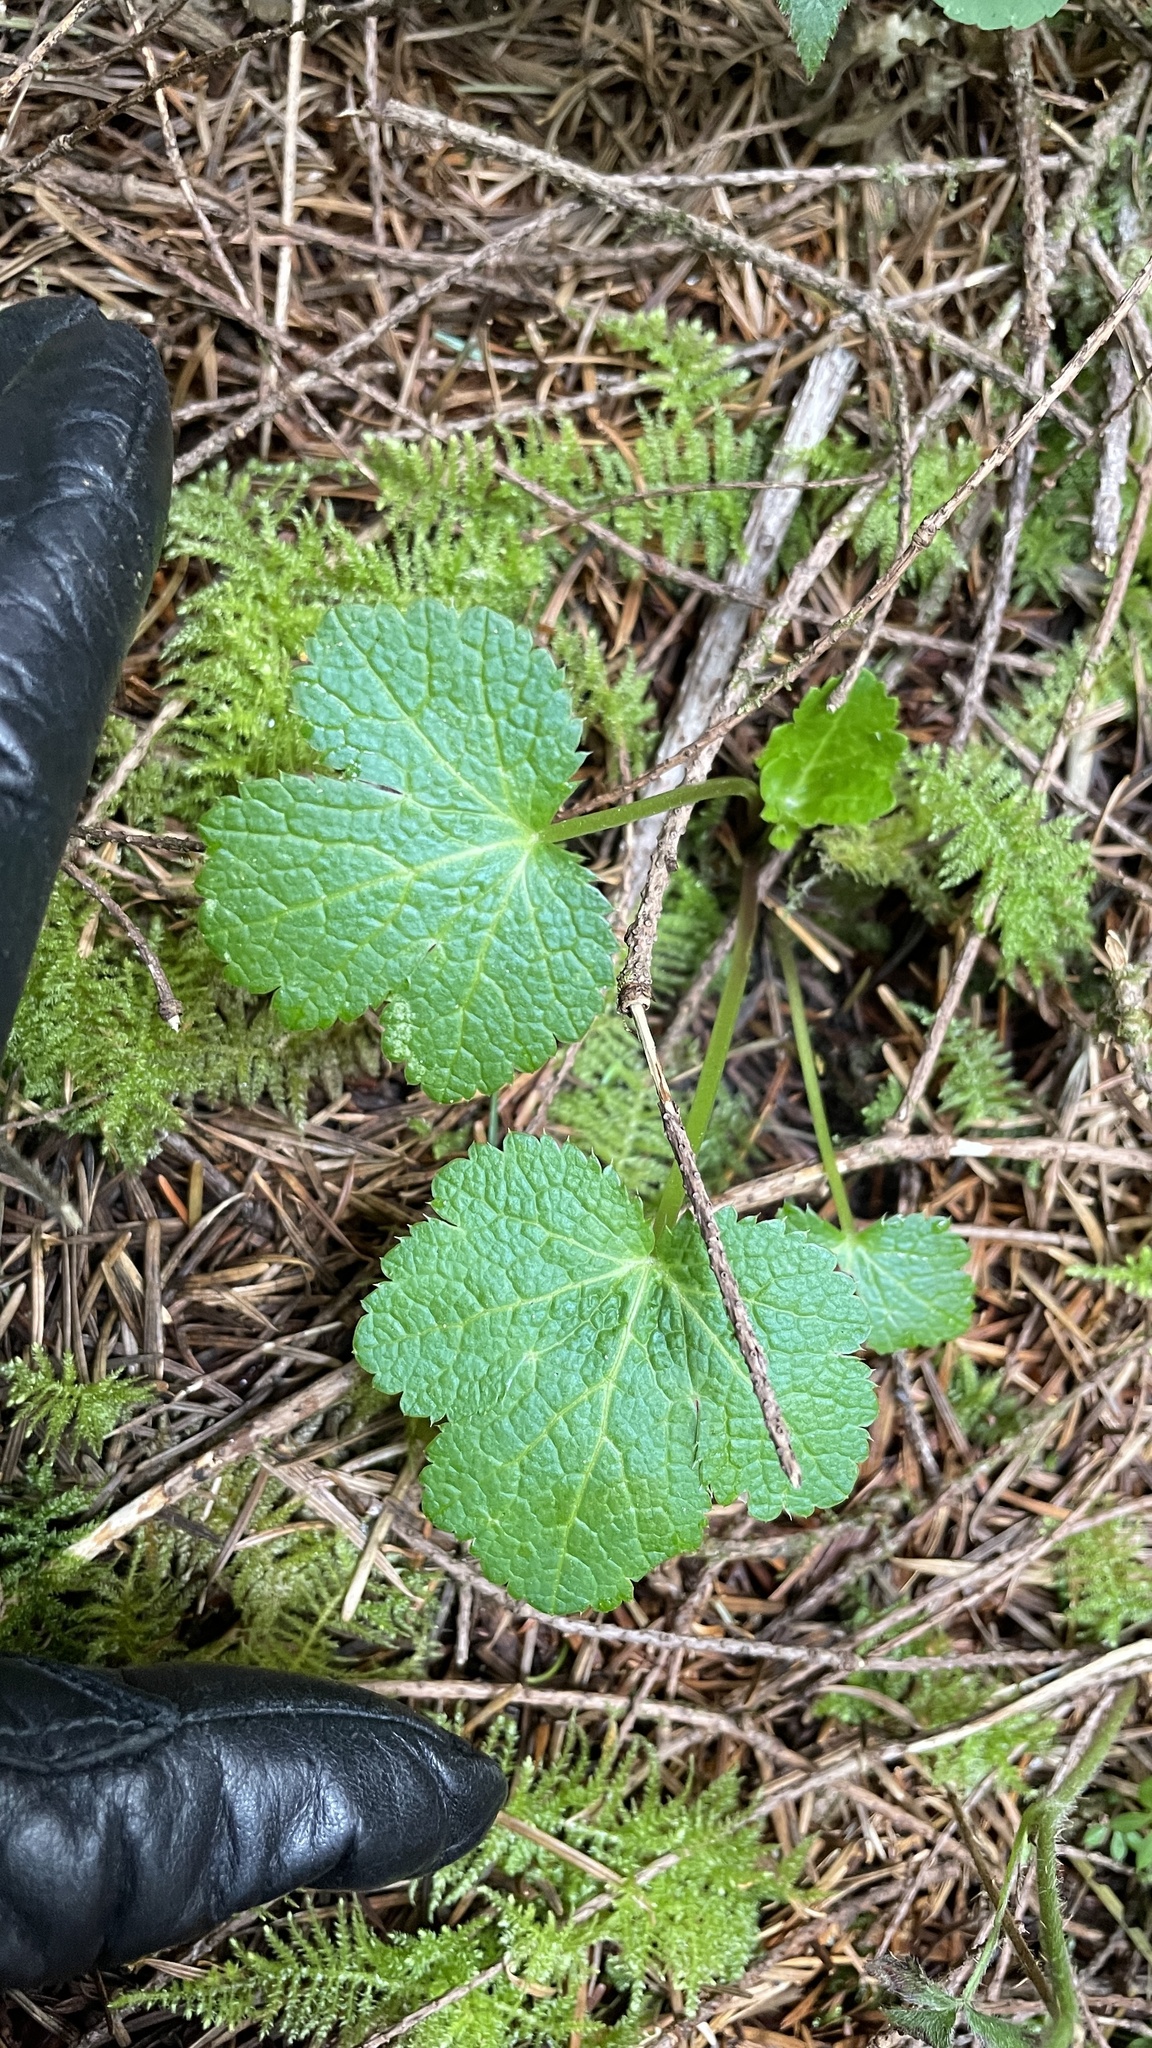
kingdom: Plantae
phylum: Tracheophyta
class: Magnoliopsida
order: Apiales
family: Apiaceae
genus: Sanicula
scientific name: Sanicula crassicaulis
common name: Western snakeroot
